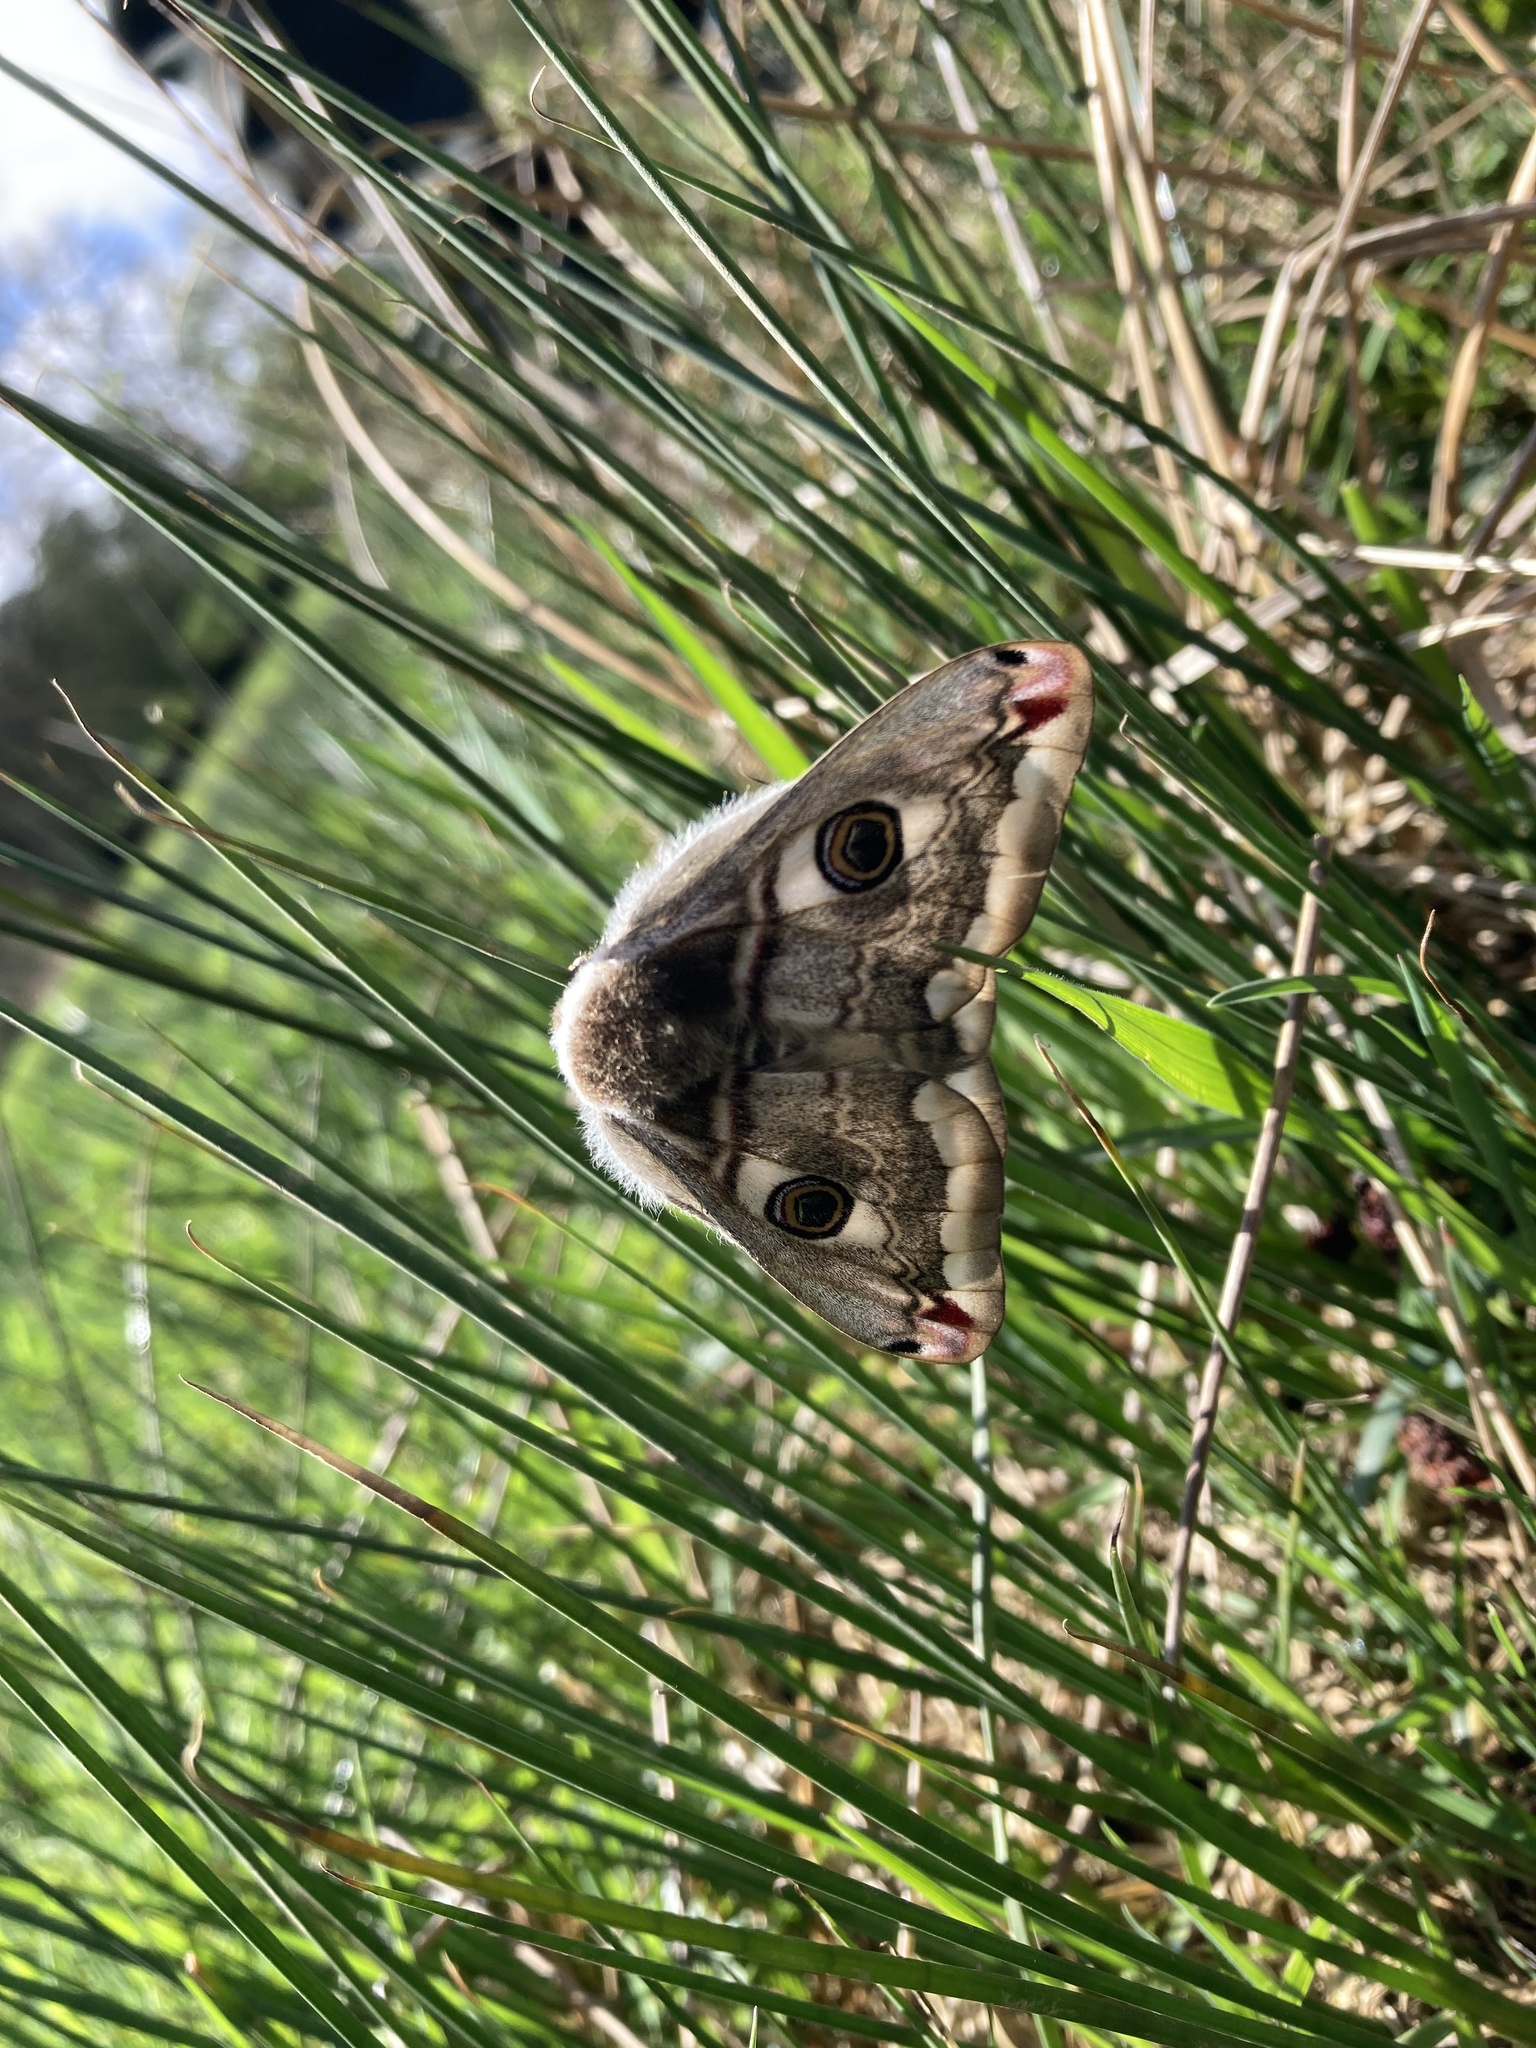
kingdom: Animalia
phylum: Arthropoda
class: Insecta
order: Lepidoptera
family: Saturniidae
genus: Saturnia
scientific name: Saturnia pavonia
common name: Emperor moth
